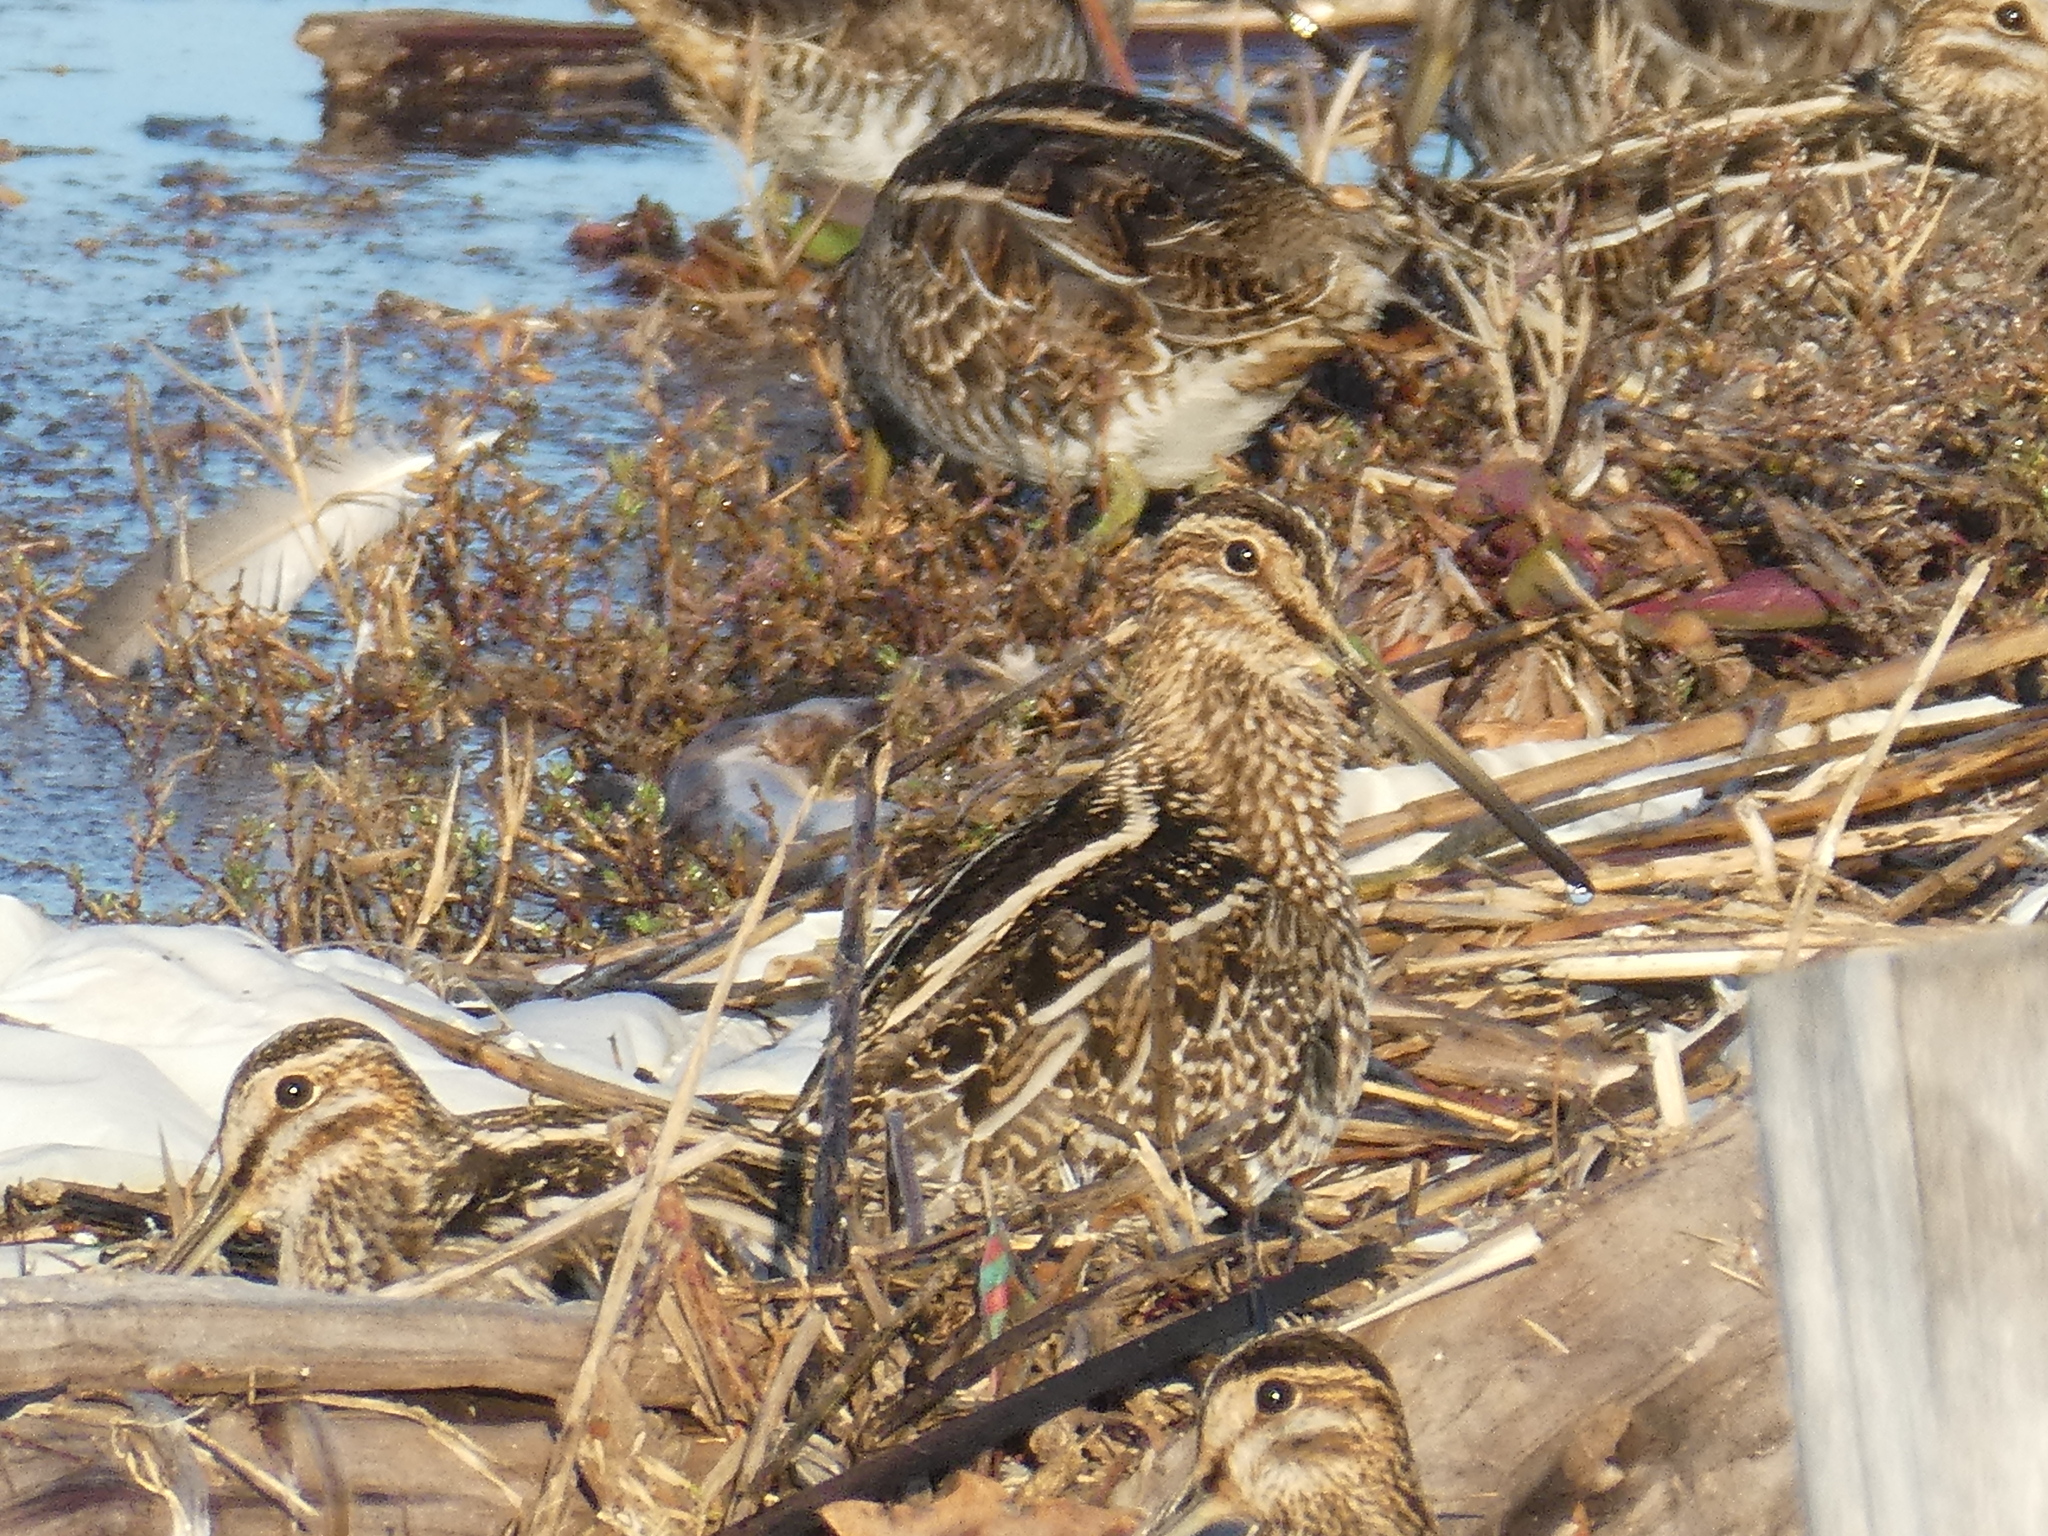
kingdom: Animalia
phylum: Chordata
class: Aves
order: Charadriiformes
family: Scolopacidae
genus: Gallinago
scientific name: Gallinago delicata
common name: Wilson's snipe
